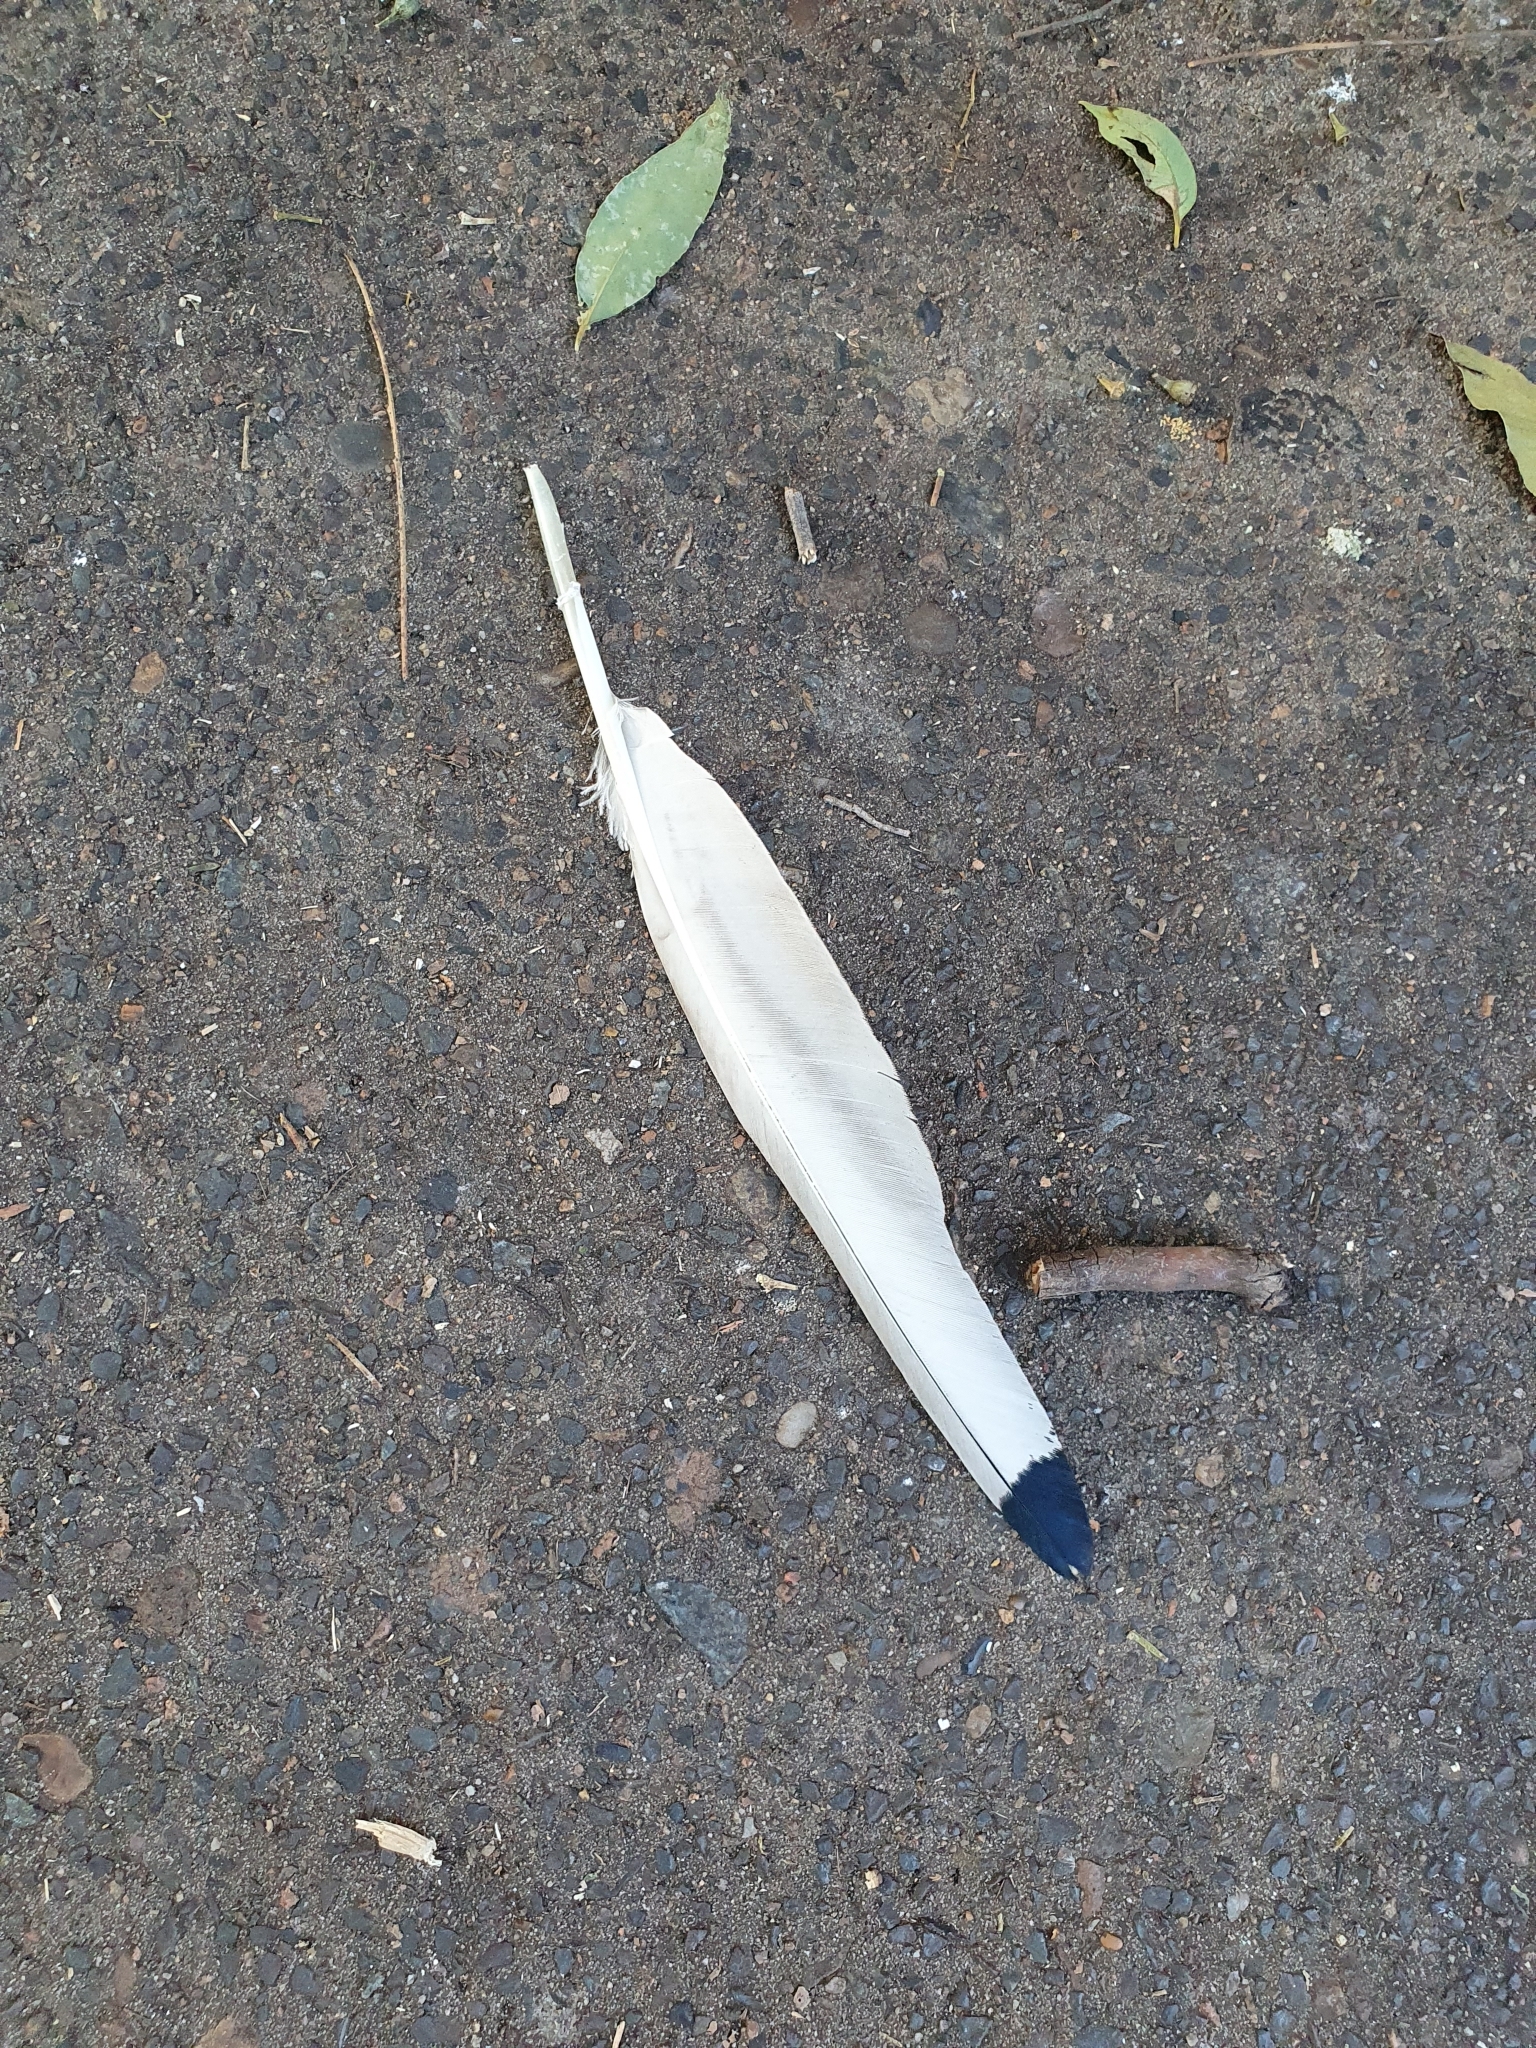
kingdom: Animalia
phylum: Chordata
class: Aves
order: Pelecaniformes
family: Threskiornithidae
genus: Threskiornis
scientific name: Threskiornis molucca
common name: Australian white ibis
